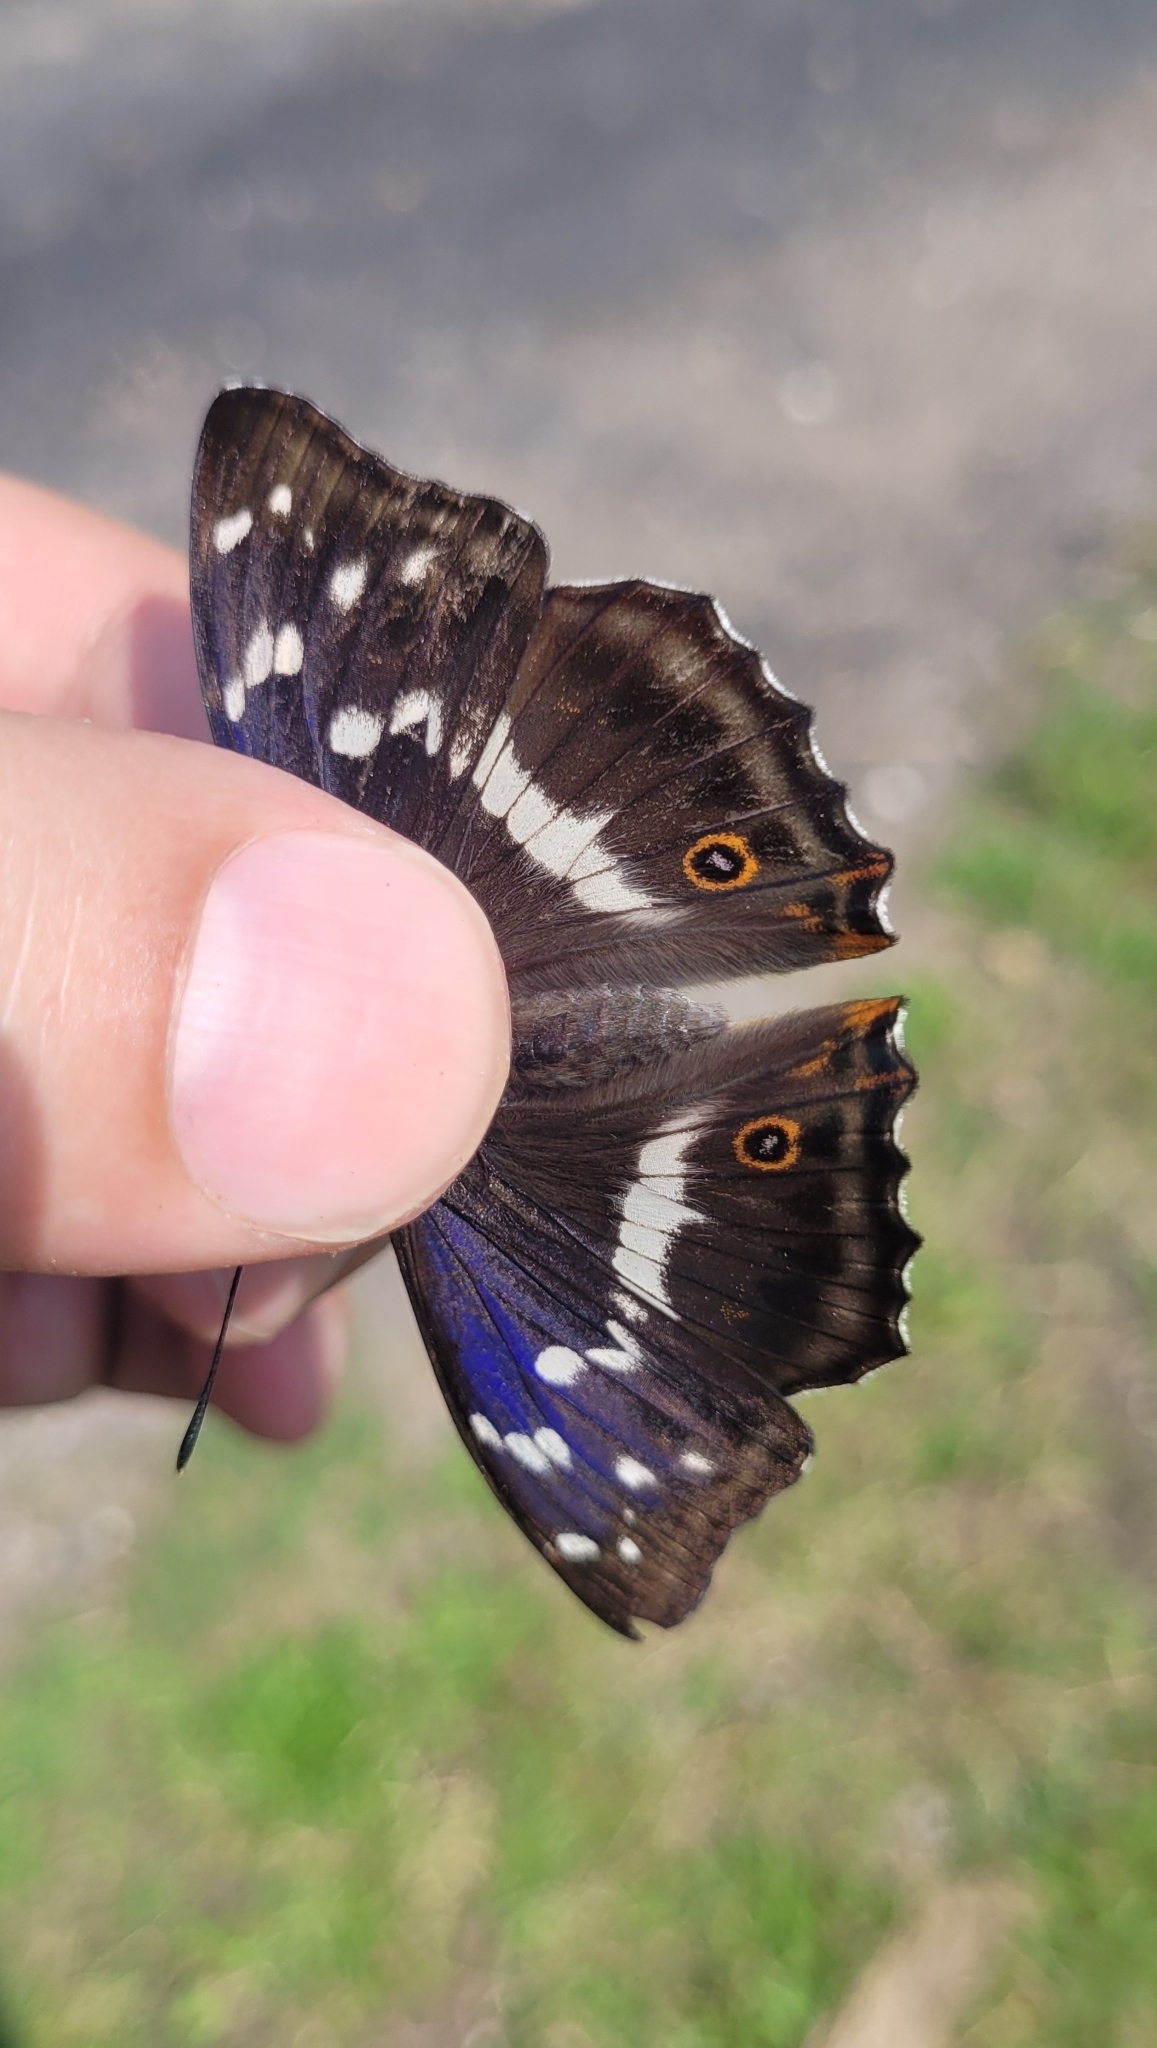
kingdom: Animalia
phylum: Arthropoda
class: Insecta
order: Lepidoptera
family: Nymphalidae
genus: Apatura
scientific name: Apatura iris
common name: Purple emperor
